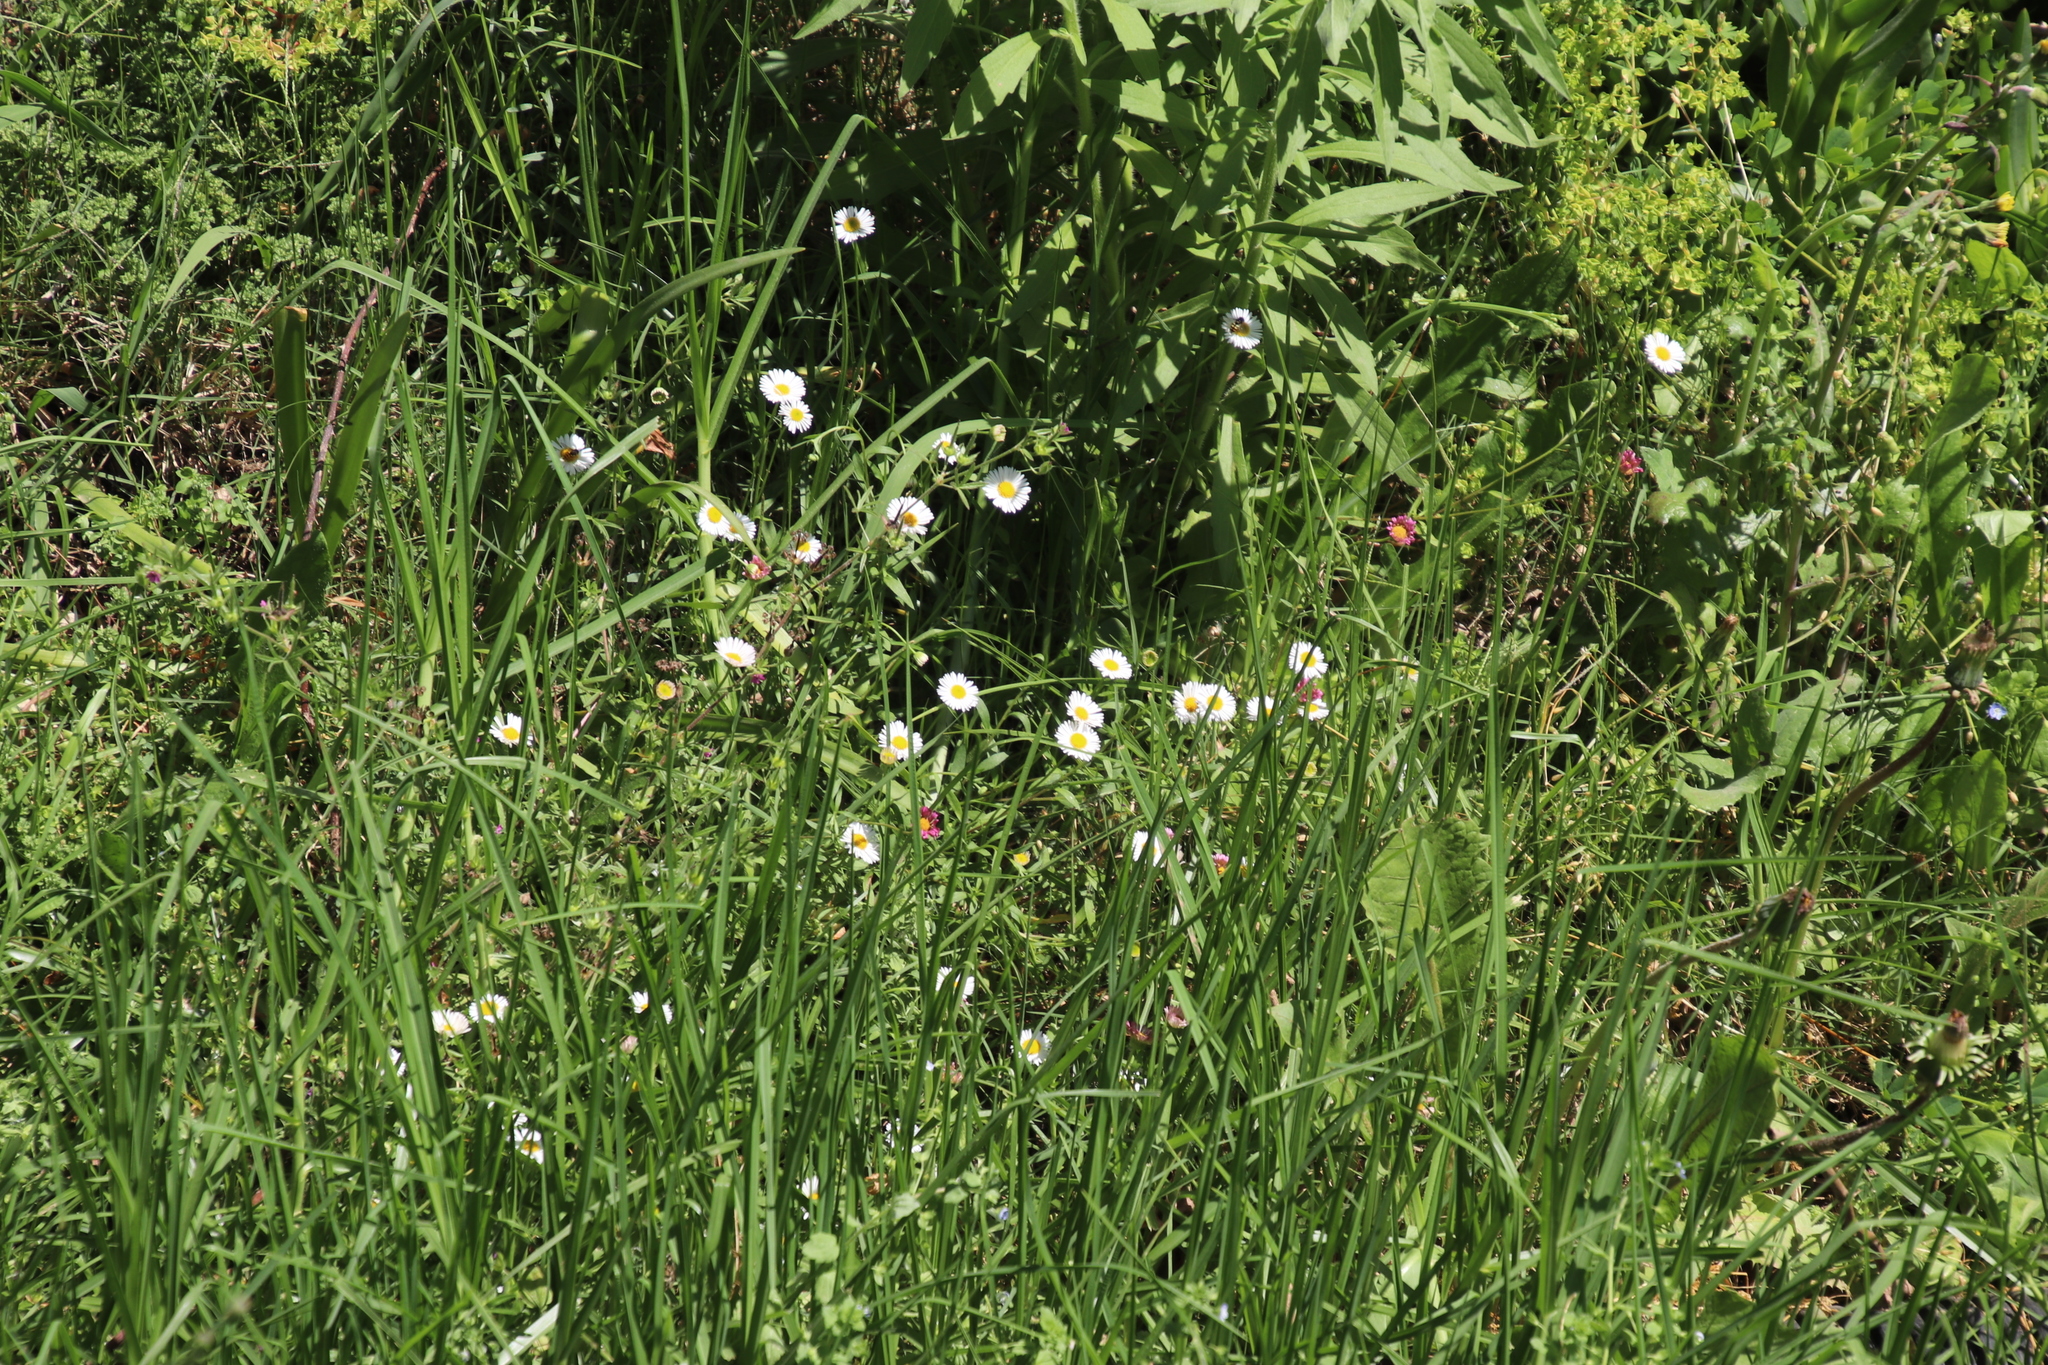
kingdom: Plantae
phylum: Tracheophyta
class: Magnoliopsida
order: Asterales
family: Asteraceae
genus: Erigeron
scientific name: Erigeron karvinskianus
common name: Mexican fleabane
